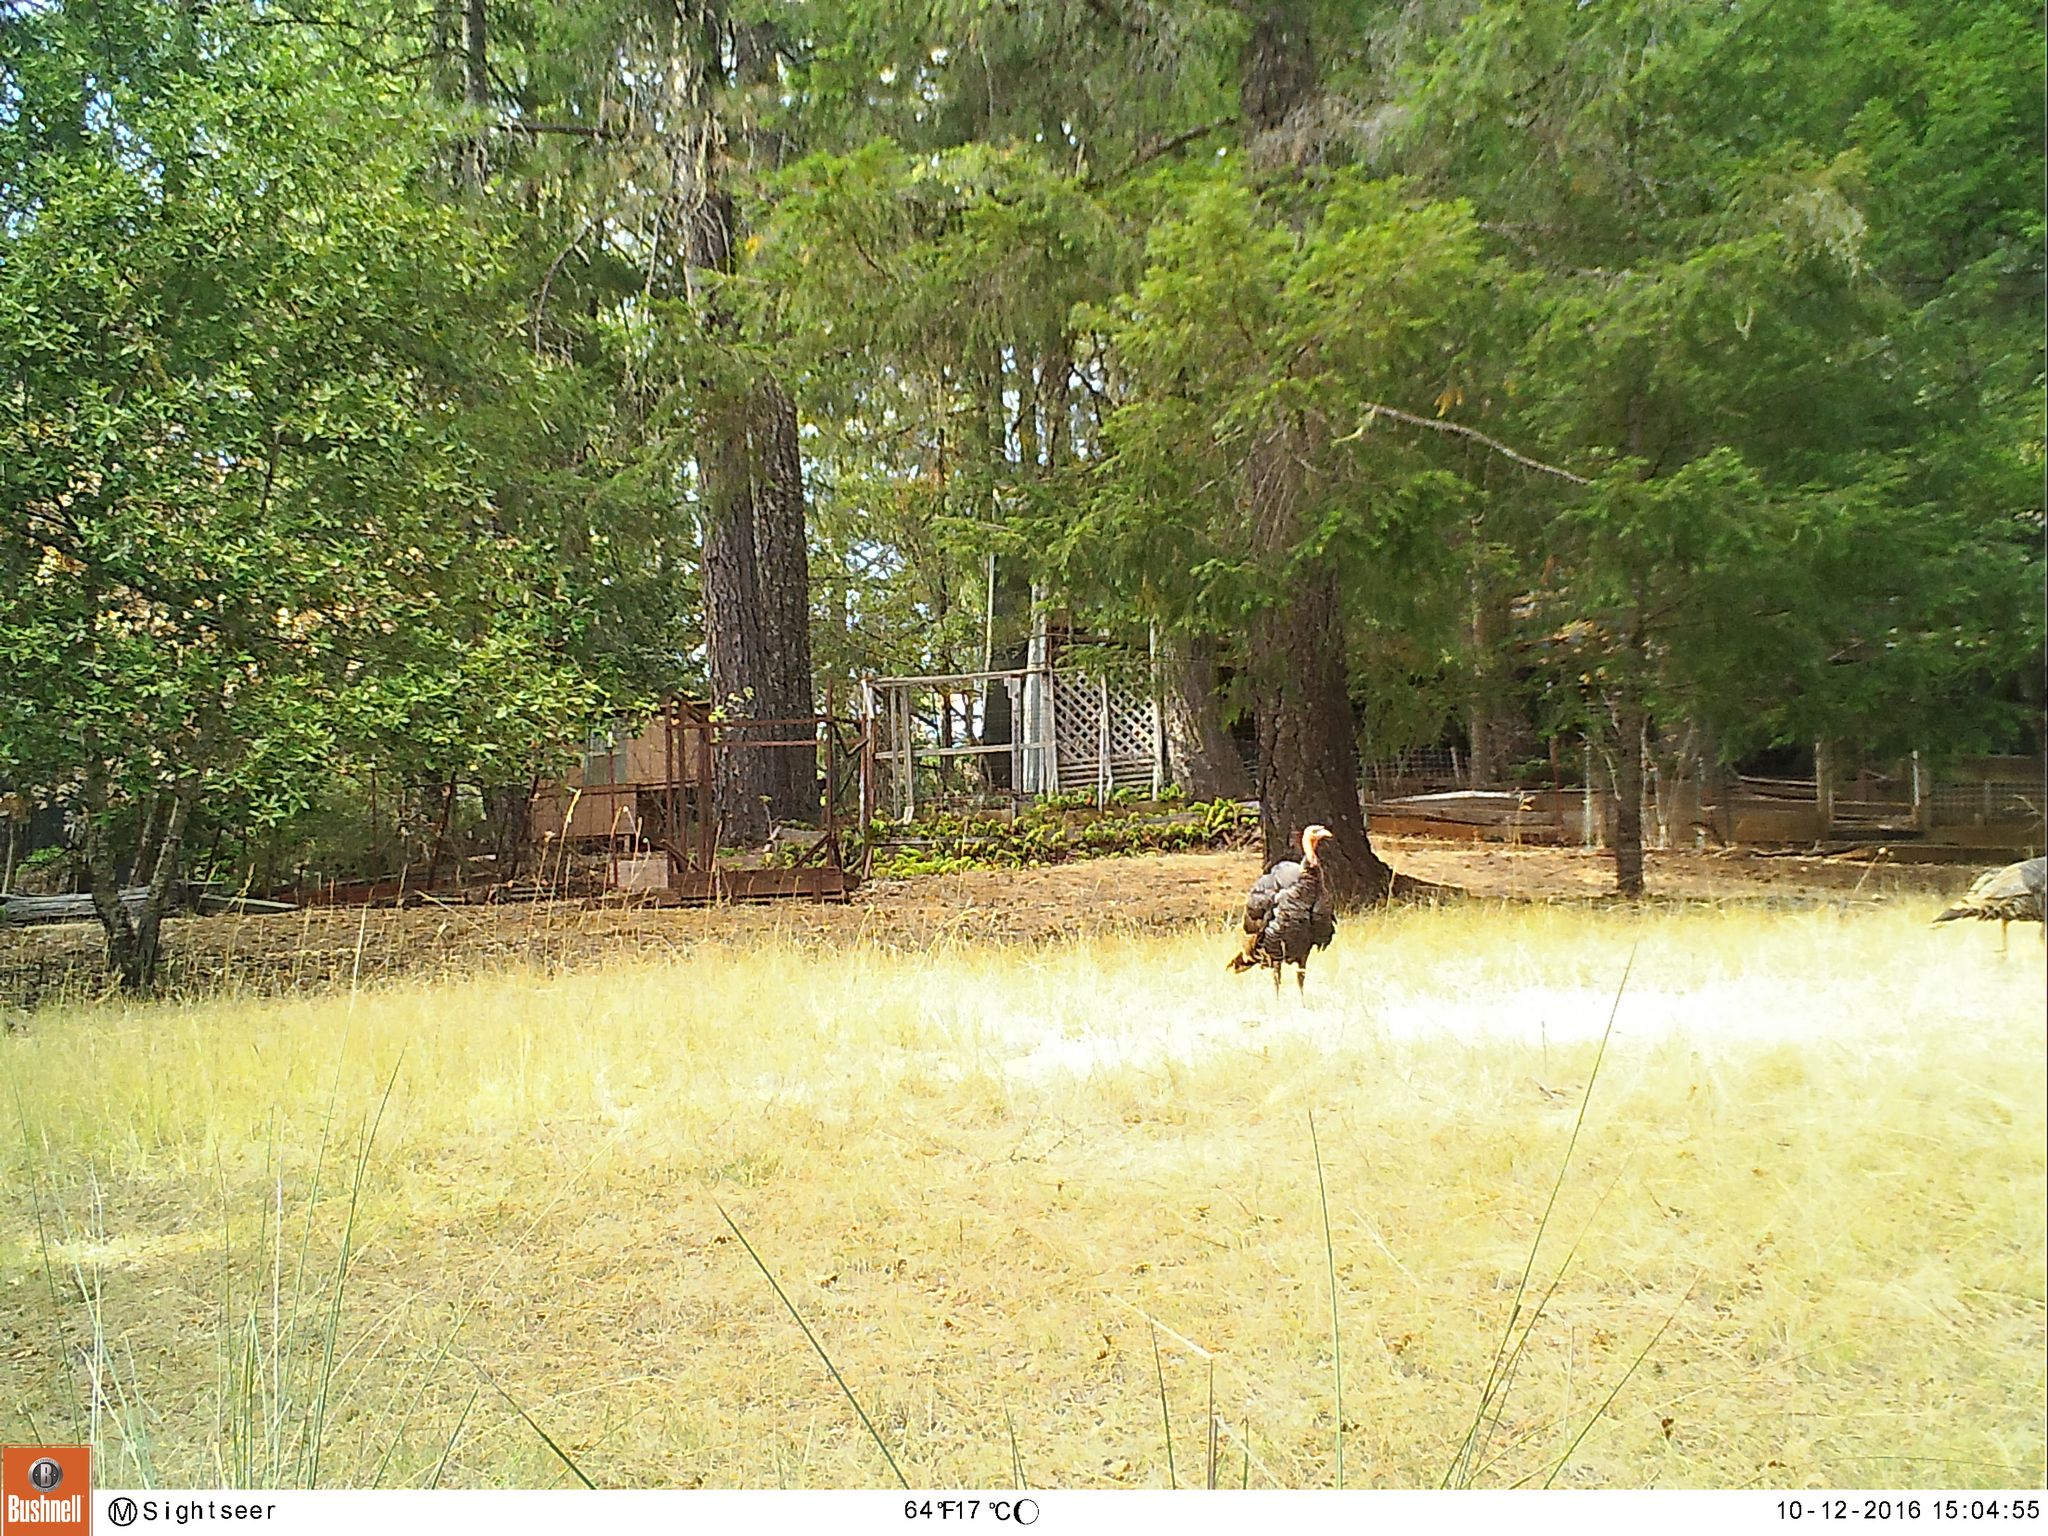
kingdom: Animalia
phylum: Chordata
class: Aves
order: Galliformes
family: Phasianidae
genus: Meleagris
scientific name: Meleagris gallopavo
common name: Wild turkey
